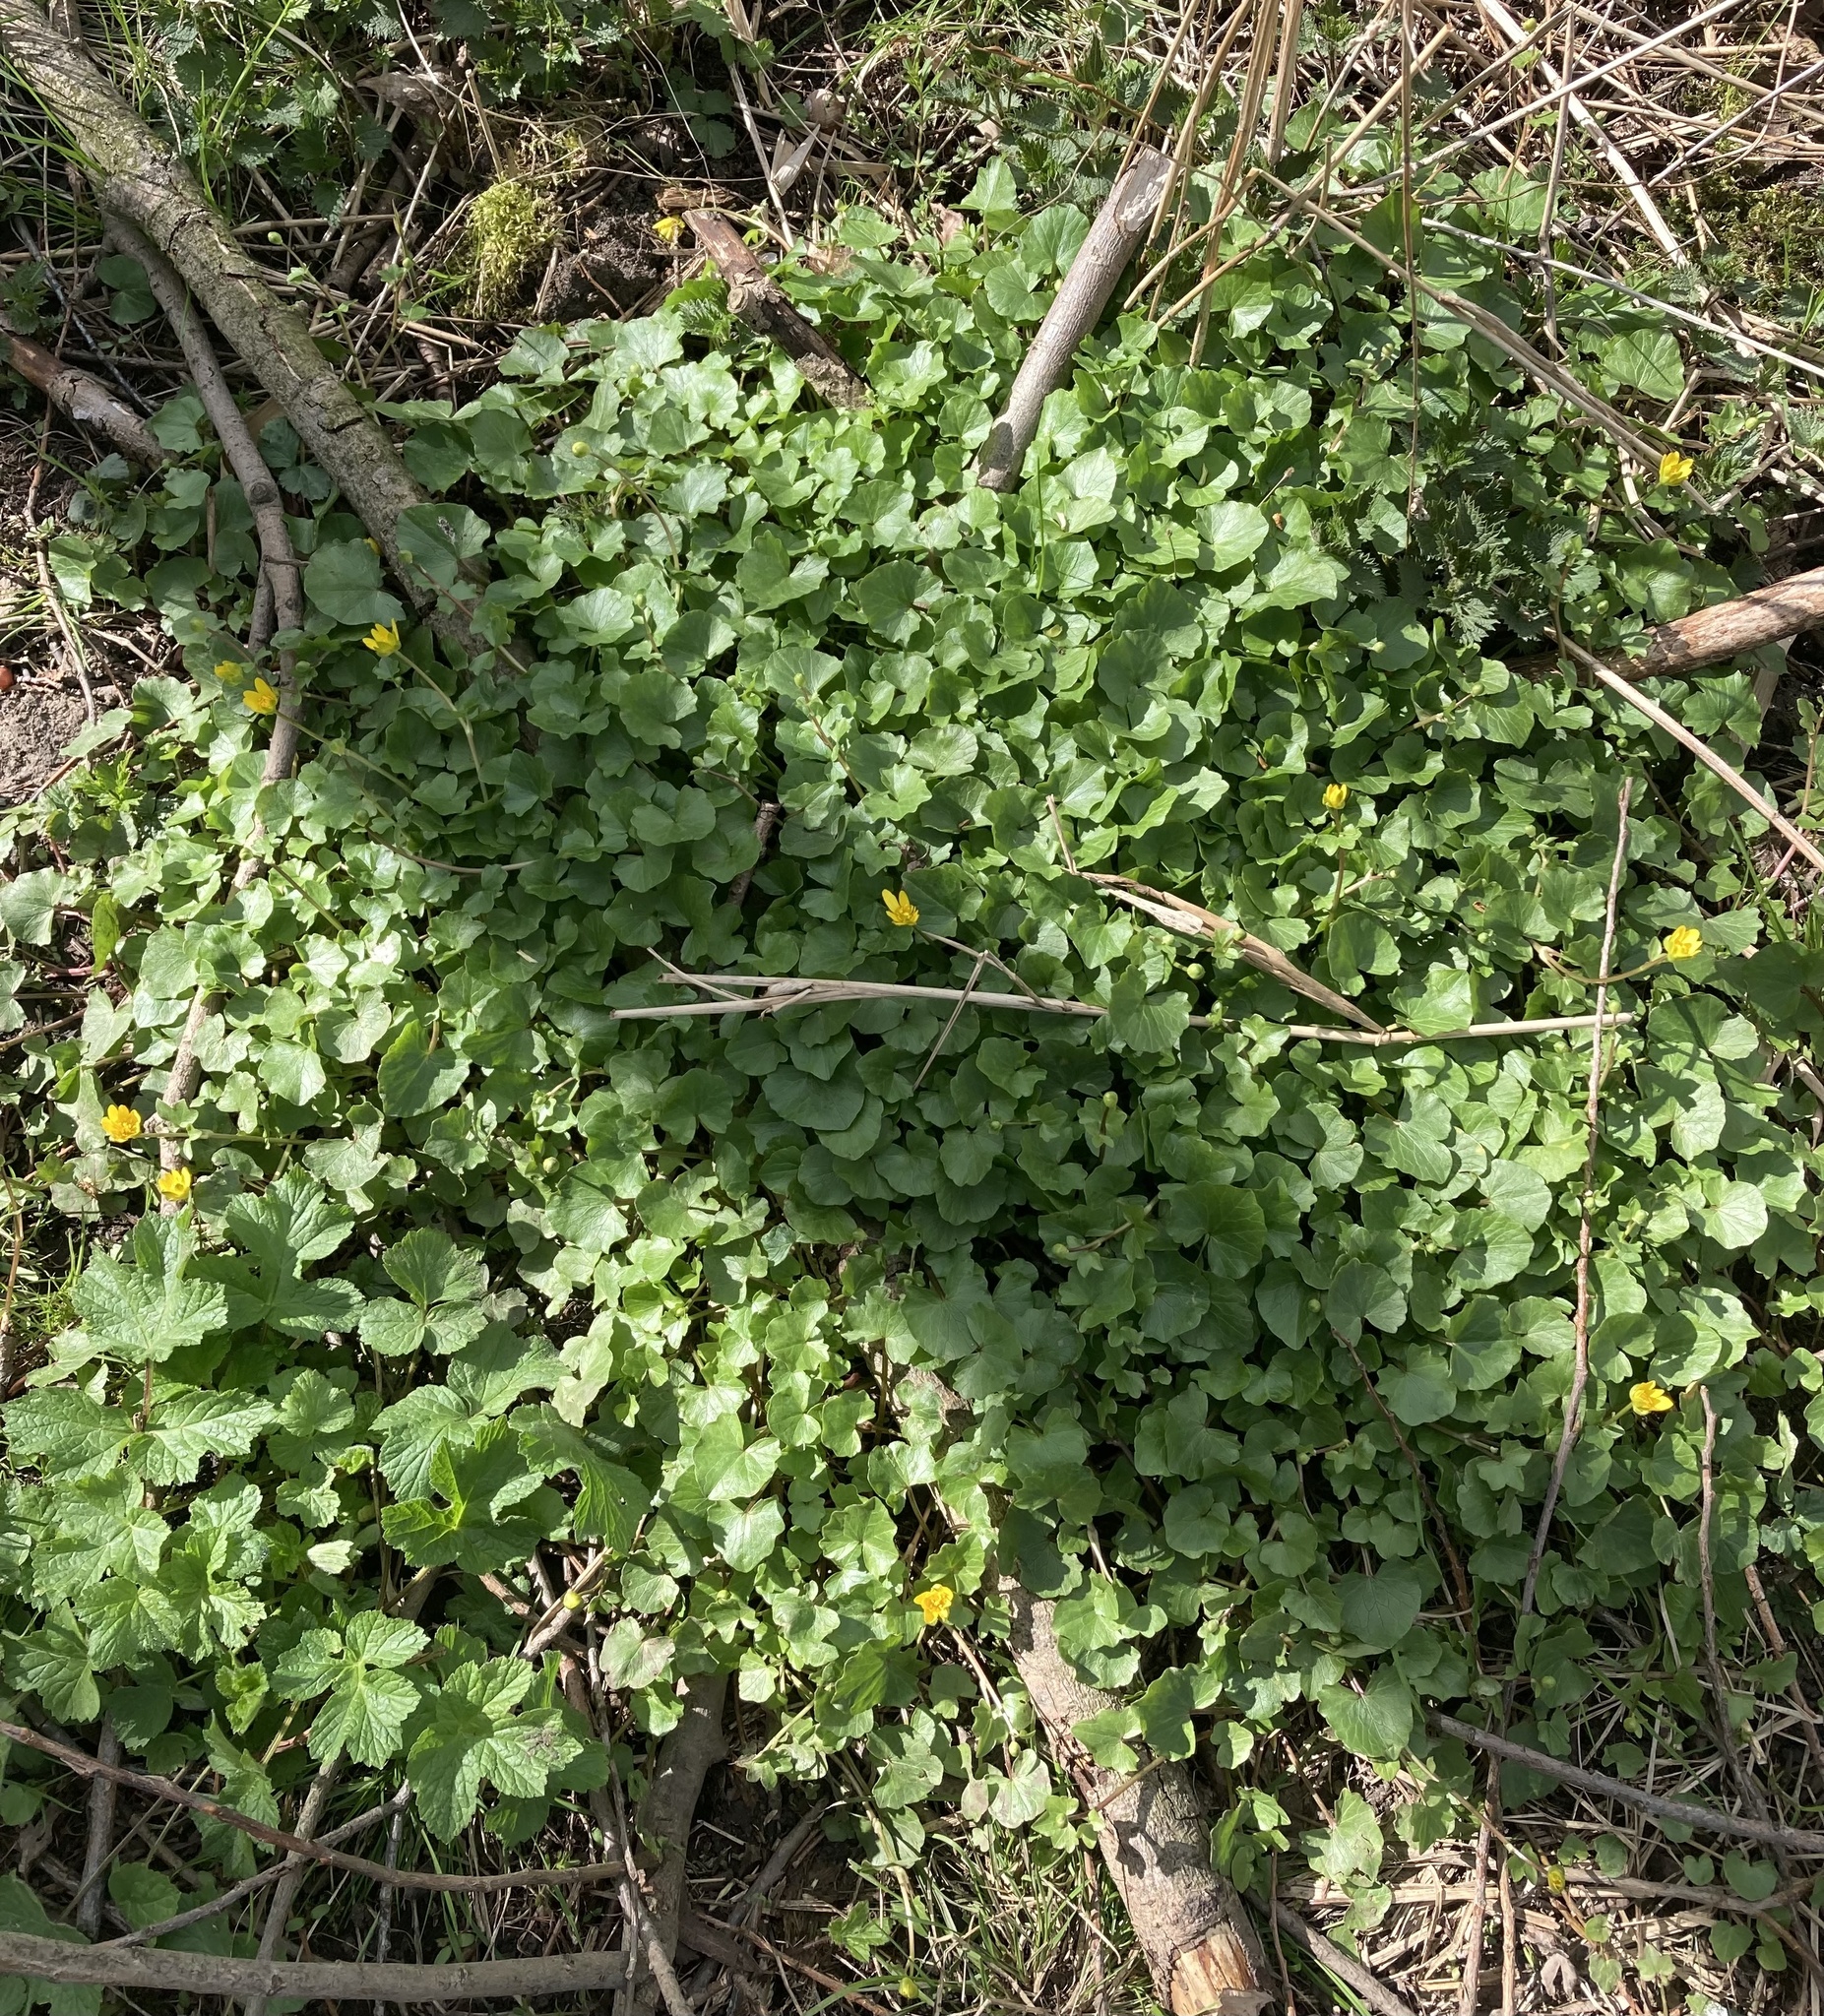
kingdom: Plantae
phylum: Tracheophyta
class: Magnoliopsida
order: Ranunculales
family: Ranunculaceae
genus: Ficaria
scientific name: Ficaria verna
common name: Lesser celandine
